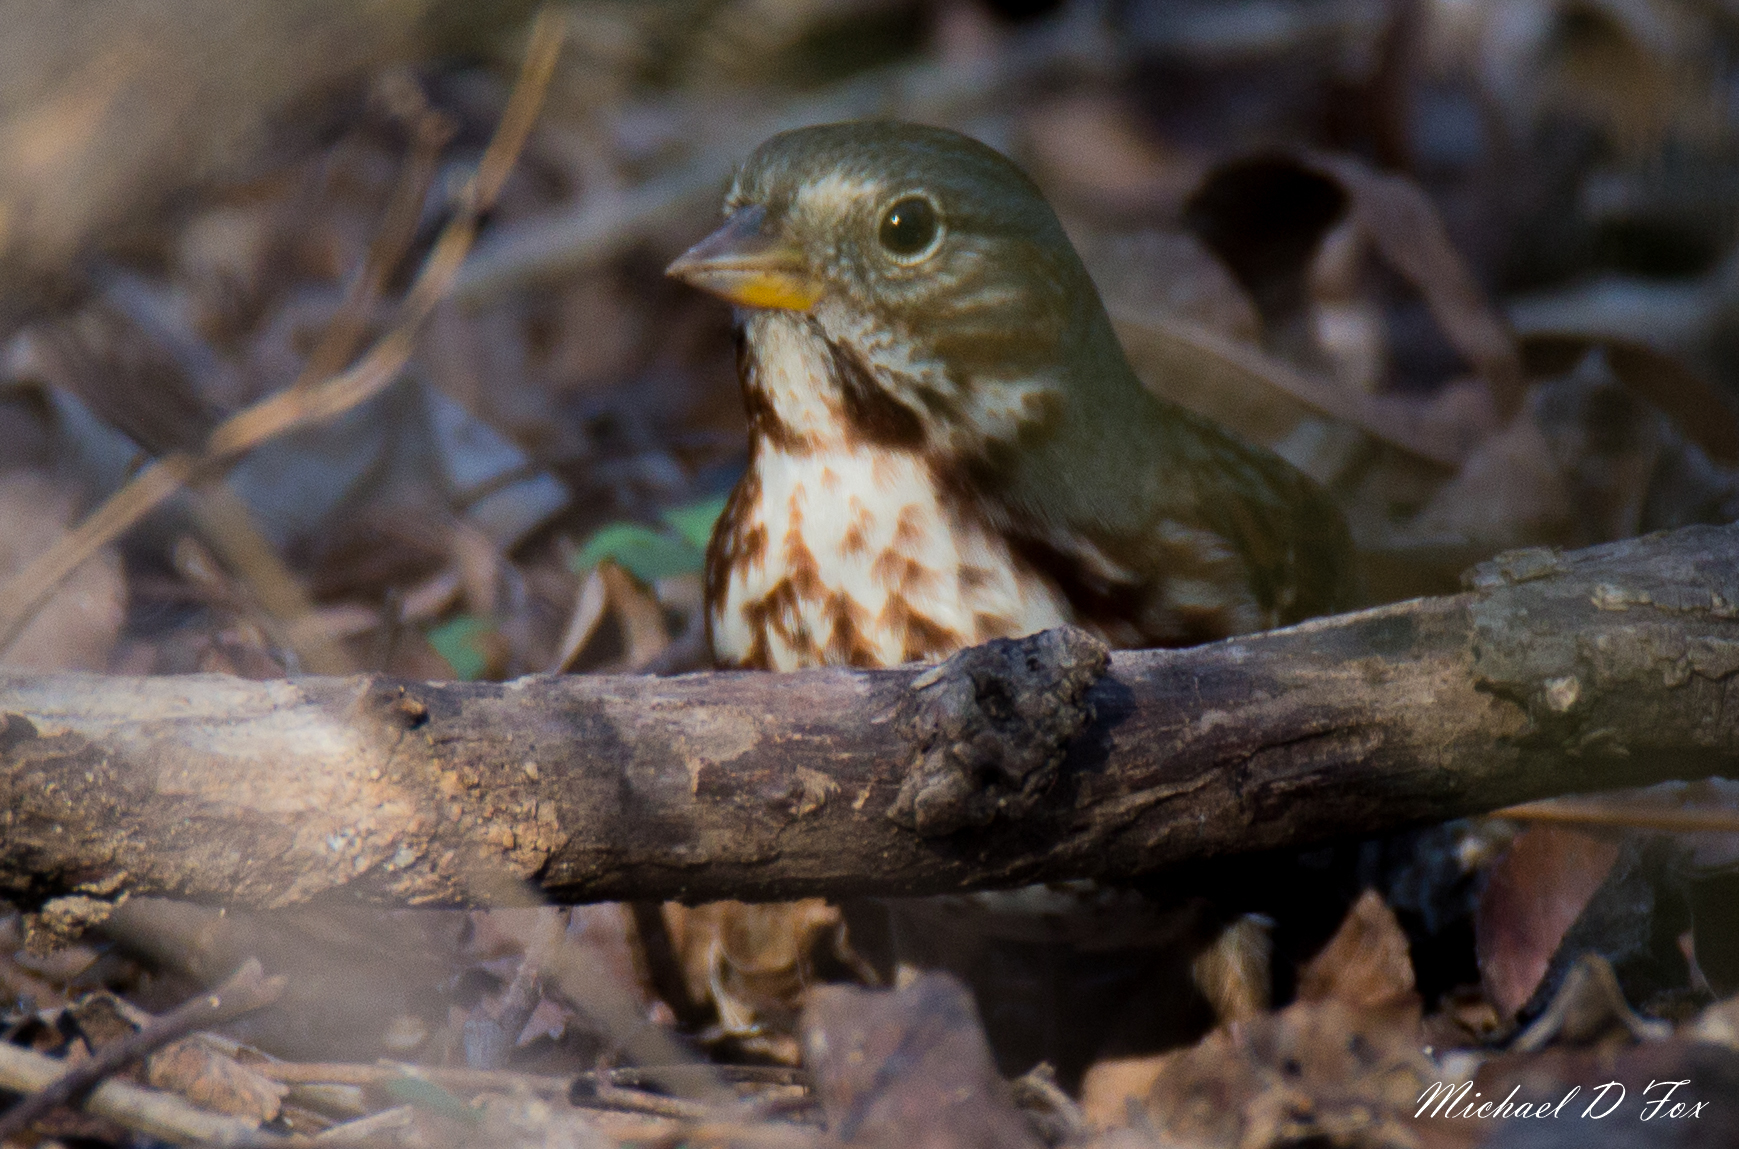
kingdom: Animalia
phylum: Chordata
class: Aves
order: Passeriformes
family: Passerellidae
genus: Passerella
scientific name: Passerella iliaca
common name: Fox sparrow
